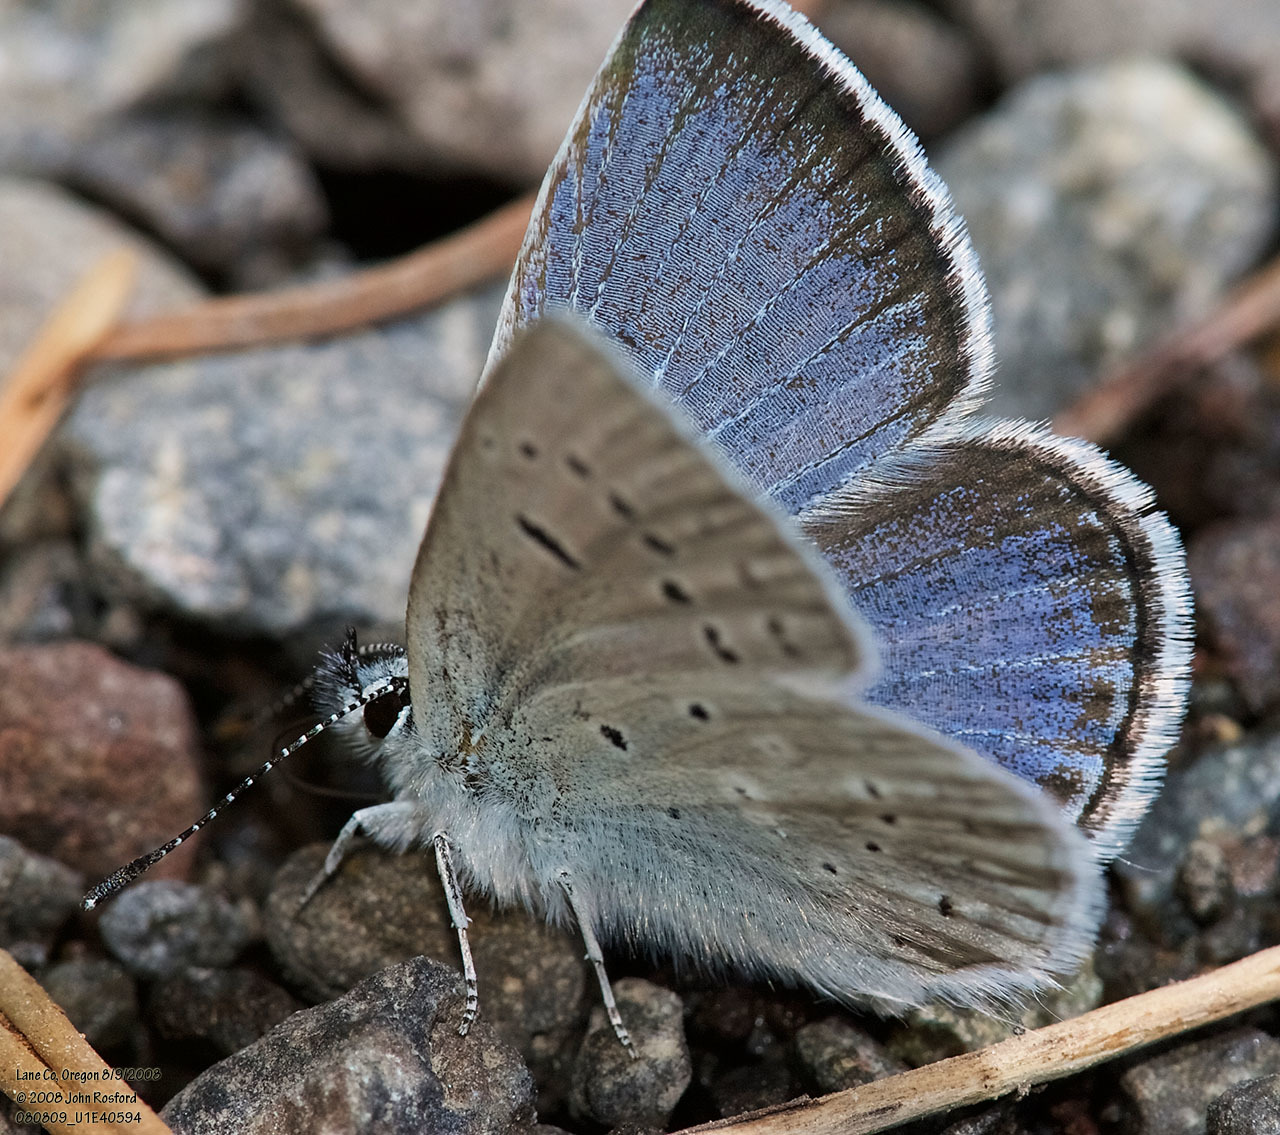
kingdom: Animalia
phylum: Arthropoda
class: Insecta
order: Lepidoptera
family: Lycaenidae
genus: Icaricia
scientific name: Icaricia icarioides
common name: Boisduval's blue
